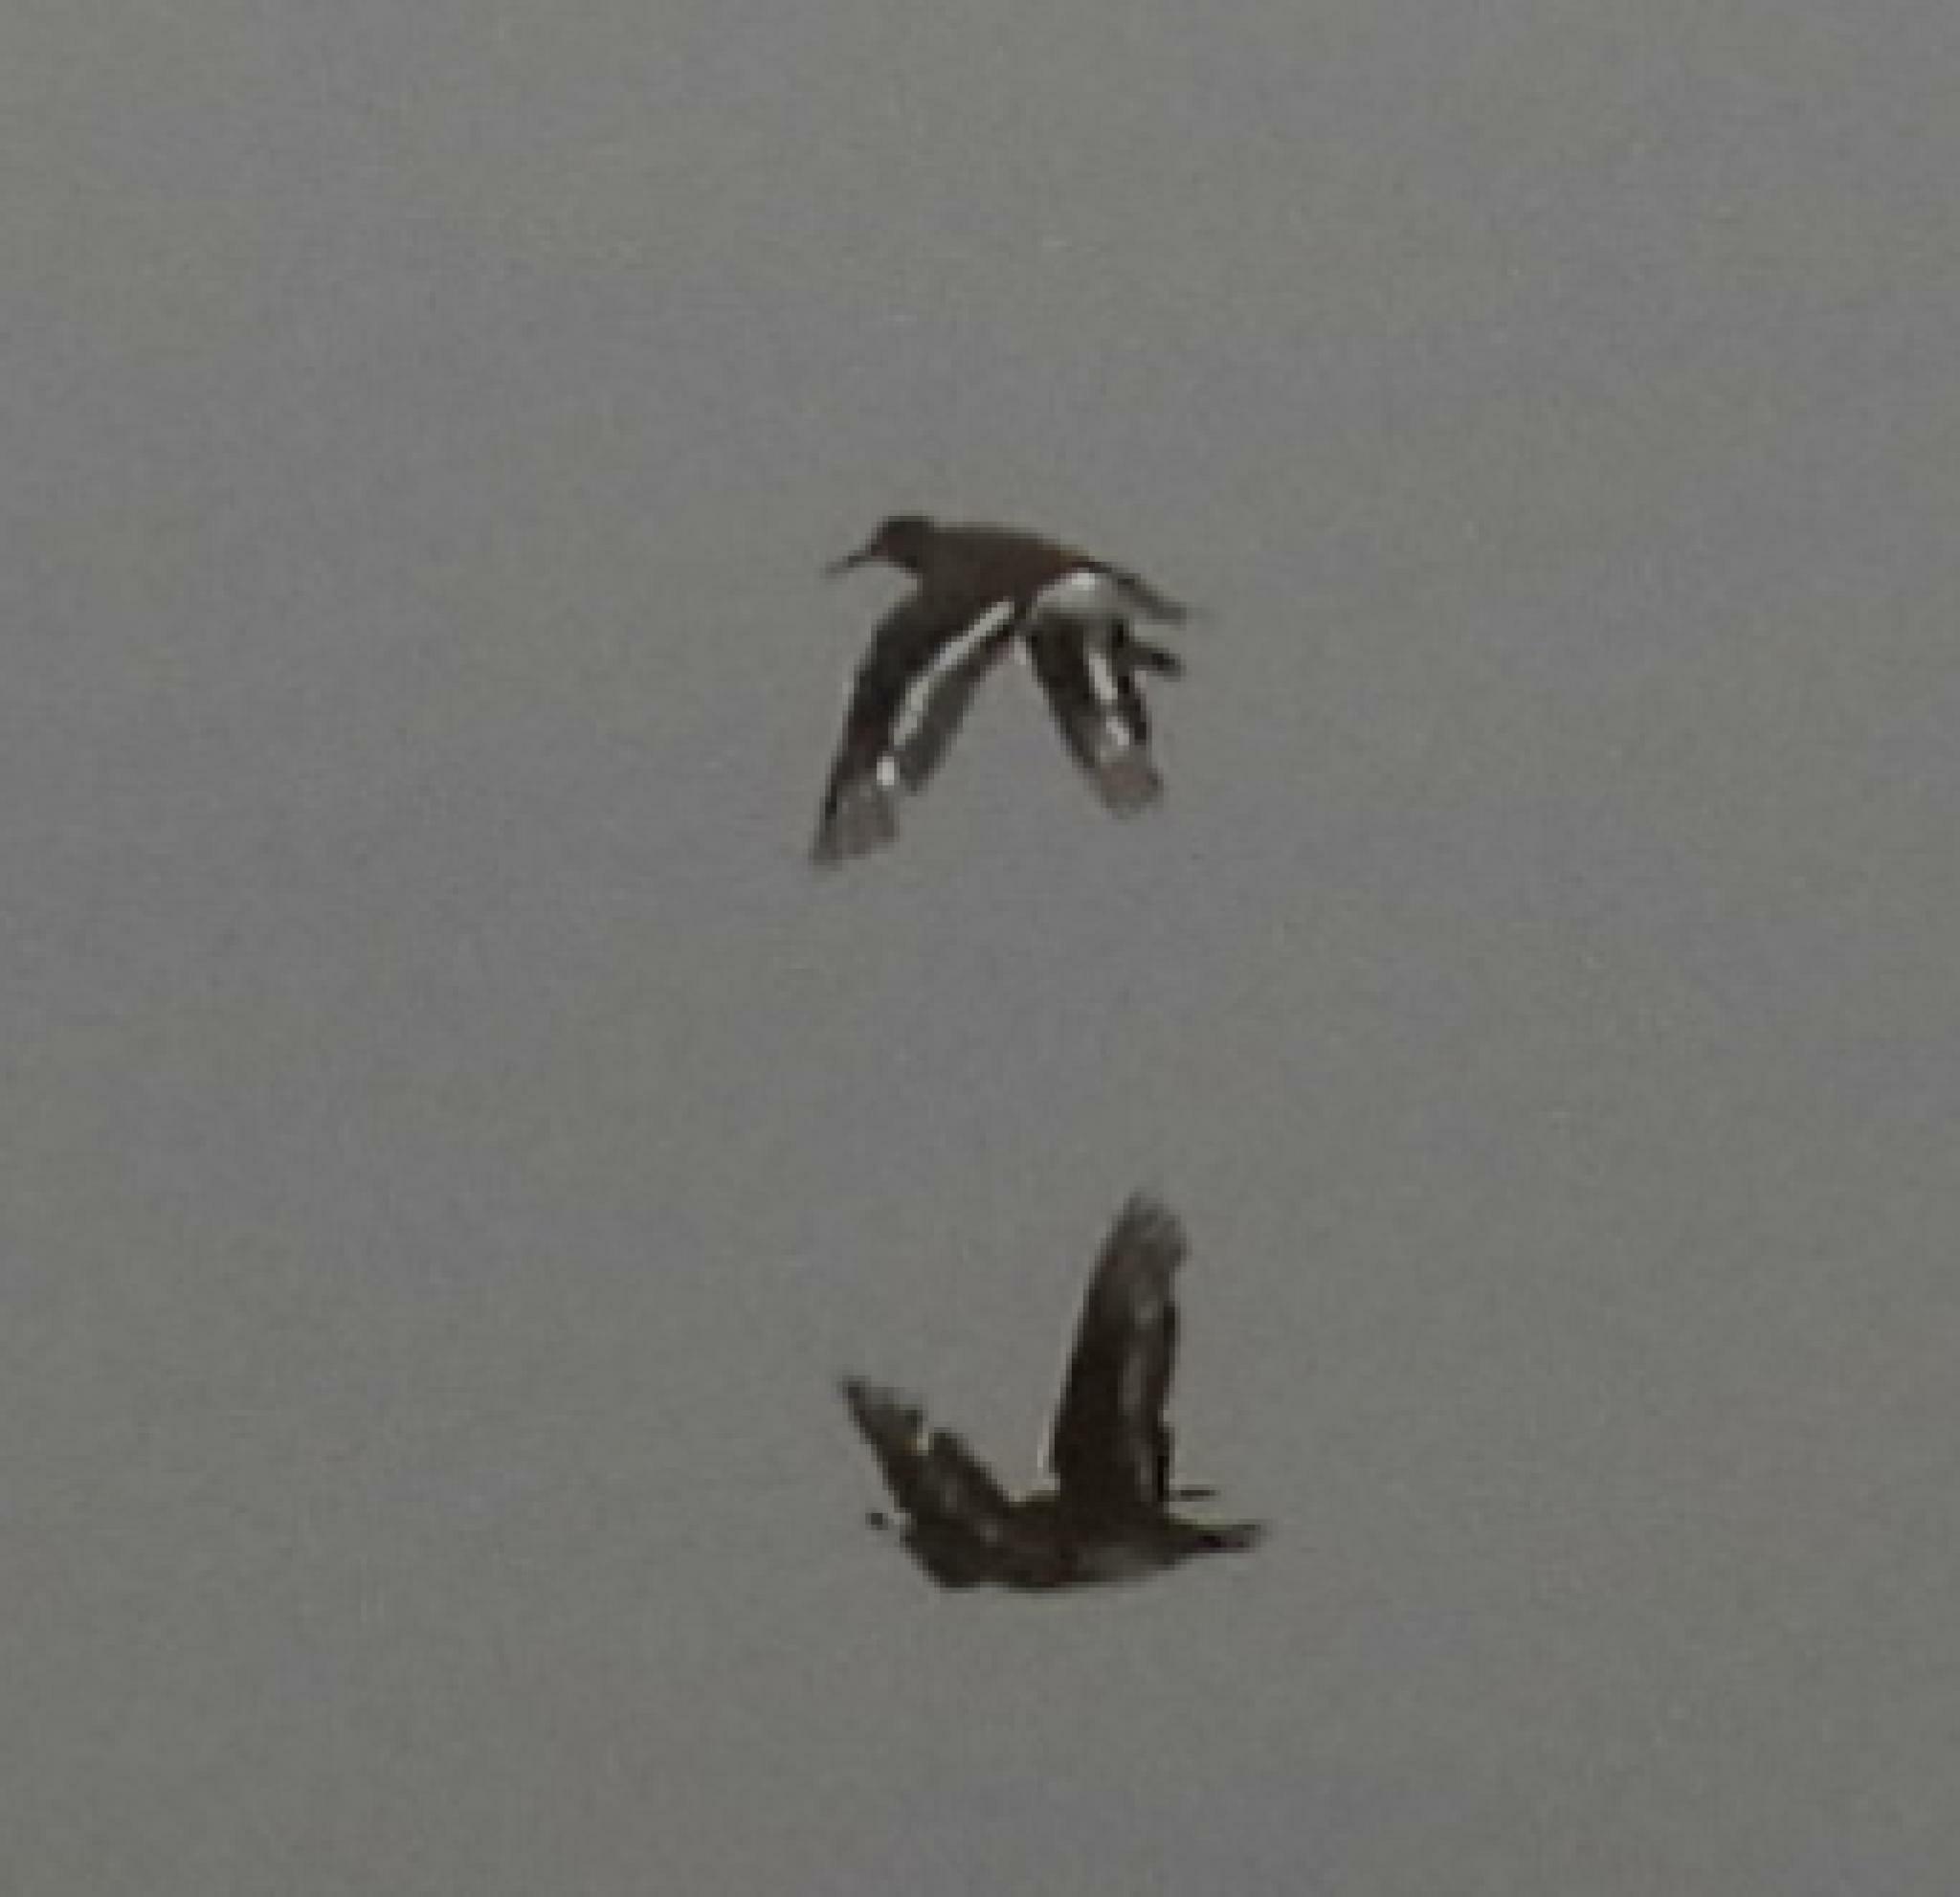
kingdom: Animalia
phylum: Chordata
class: Aves
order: Charadriiformes
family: Scolopacidae
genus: Actitis
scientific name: Actitis hypoleucos
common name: Common sandpiper
